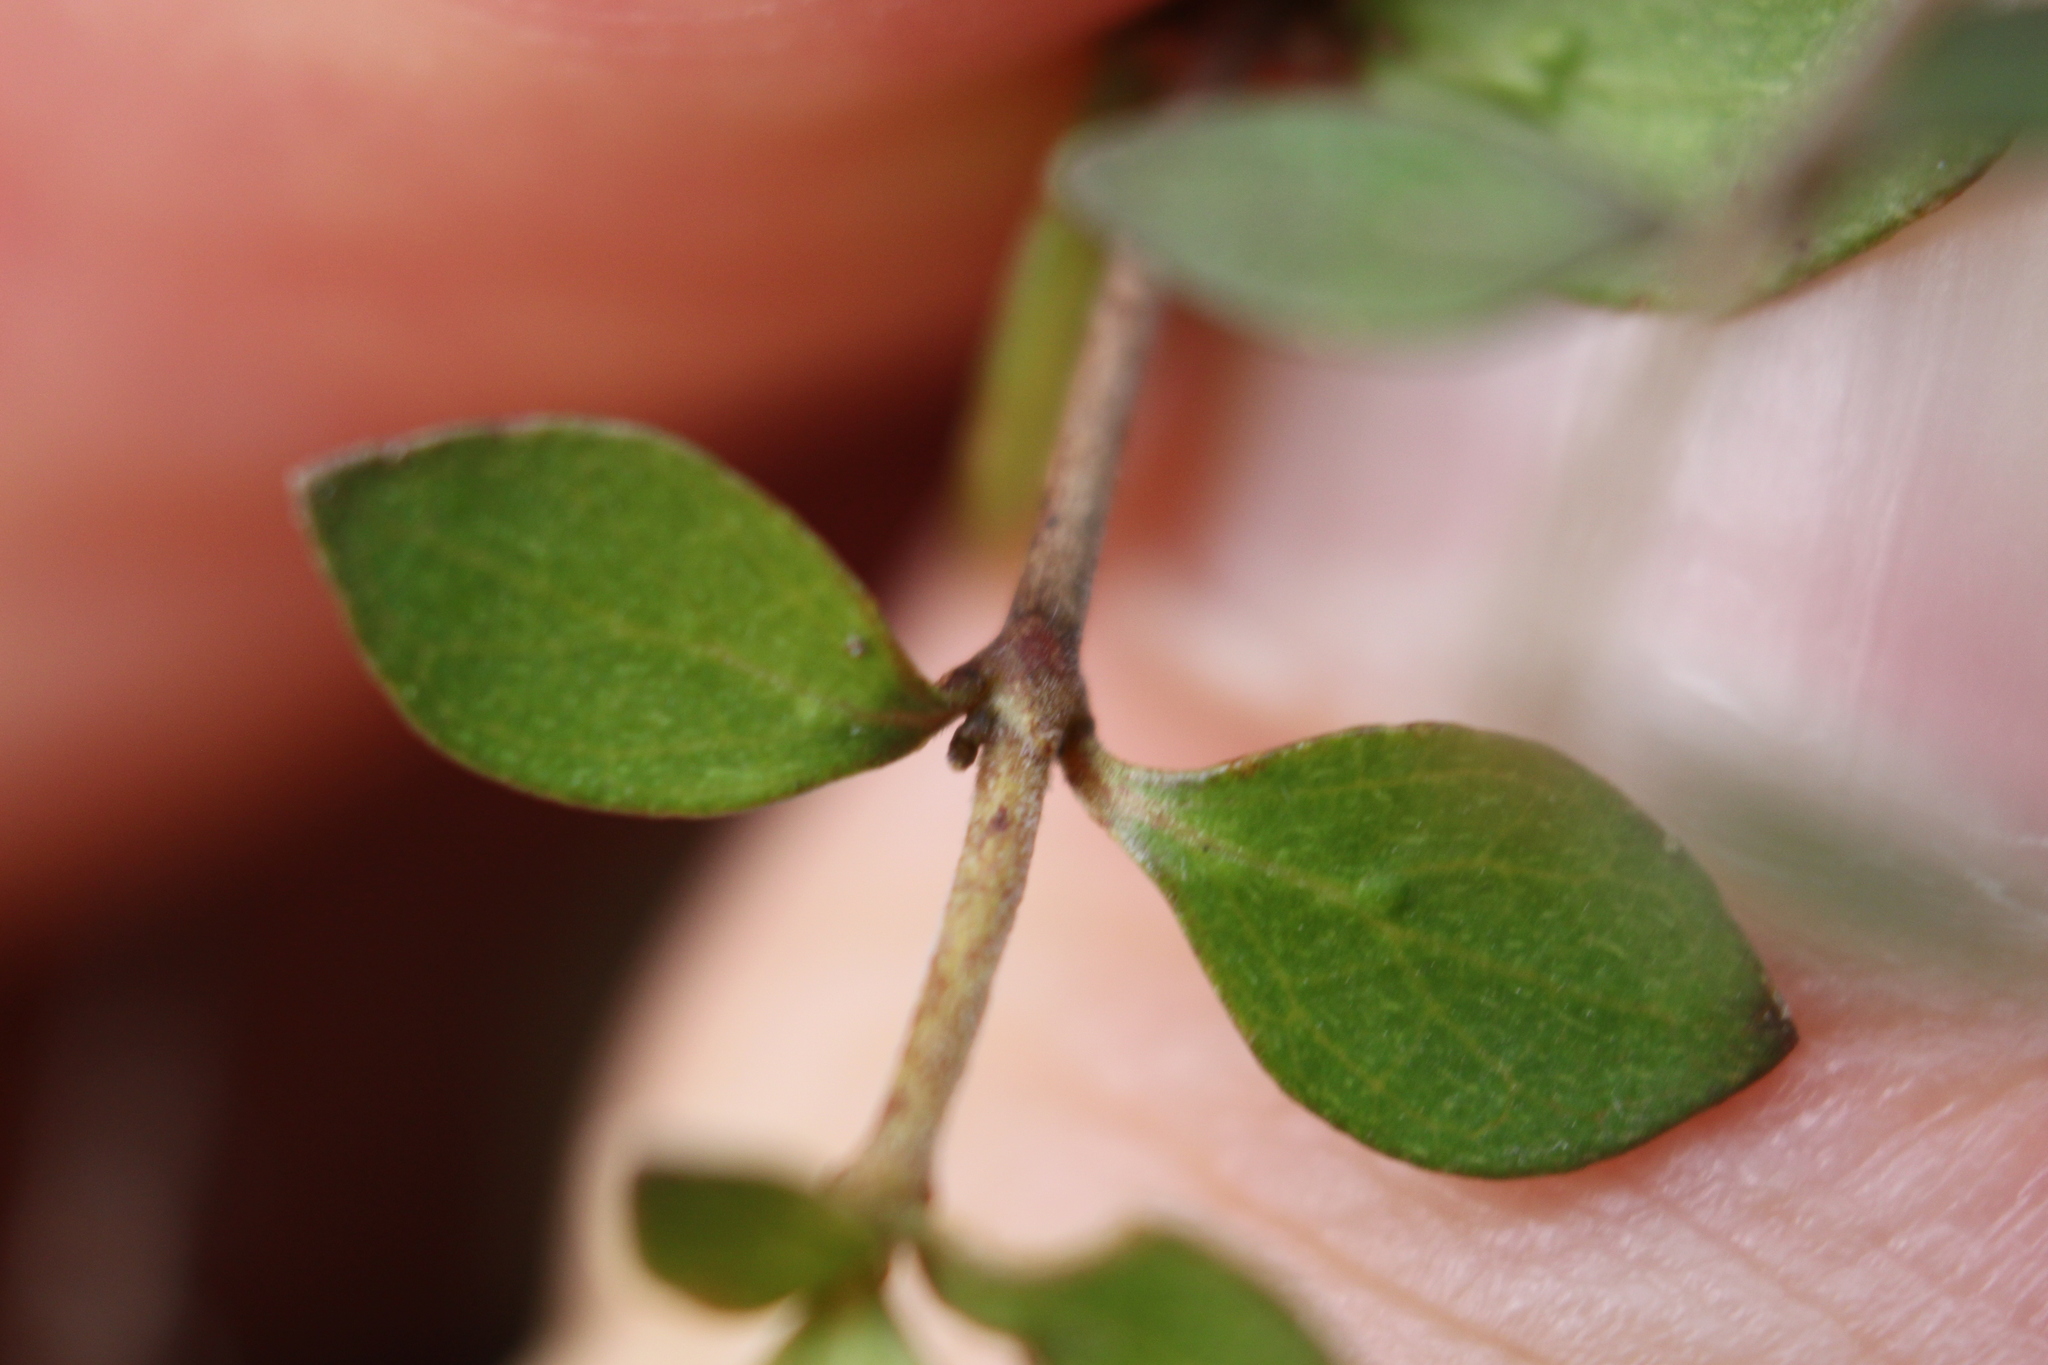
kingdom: Plantae
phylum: Tracheophyta
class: Magnoliopsida
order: Gentianales
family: Rubiaceae
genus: Coprosma
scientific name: Coprosma rhamnoides
